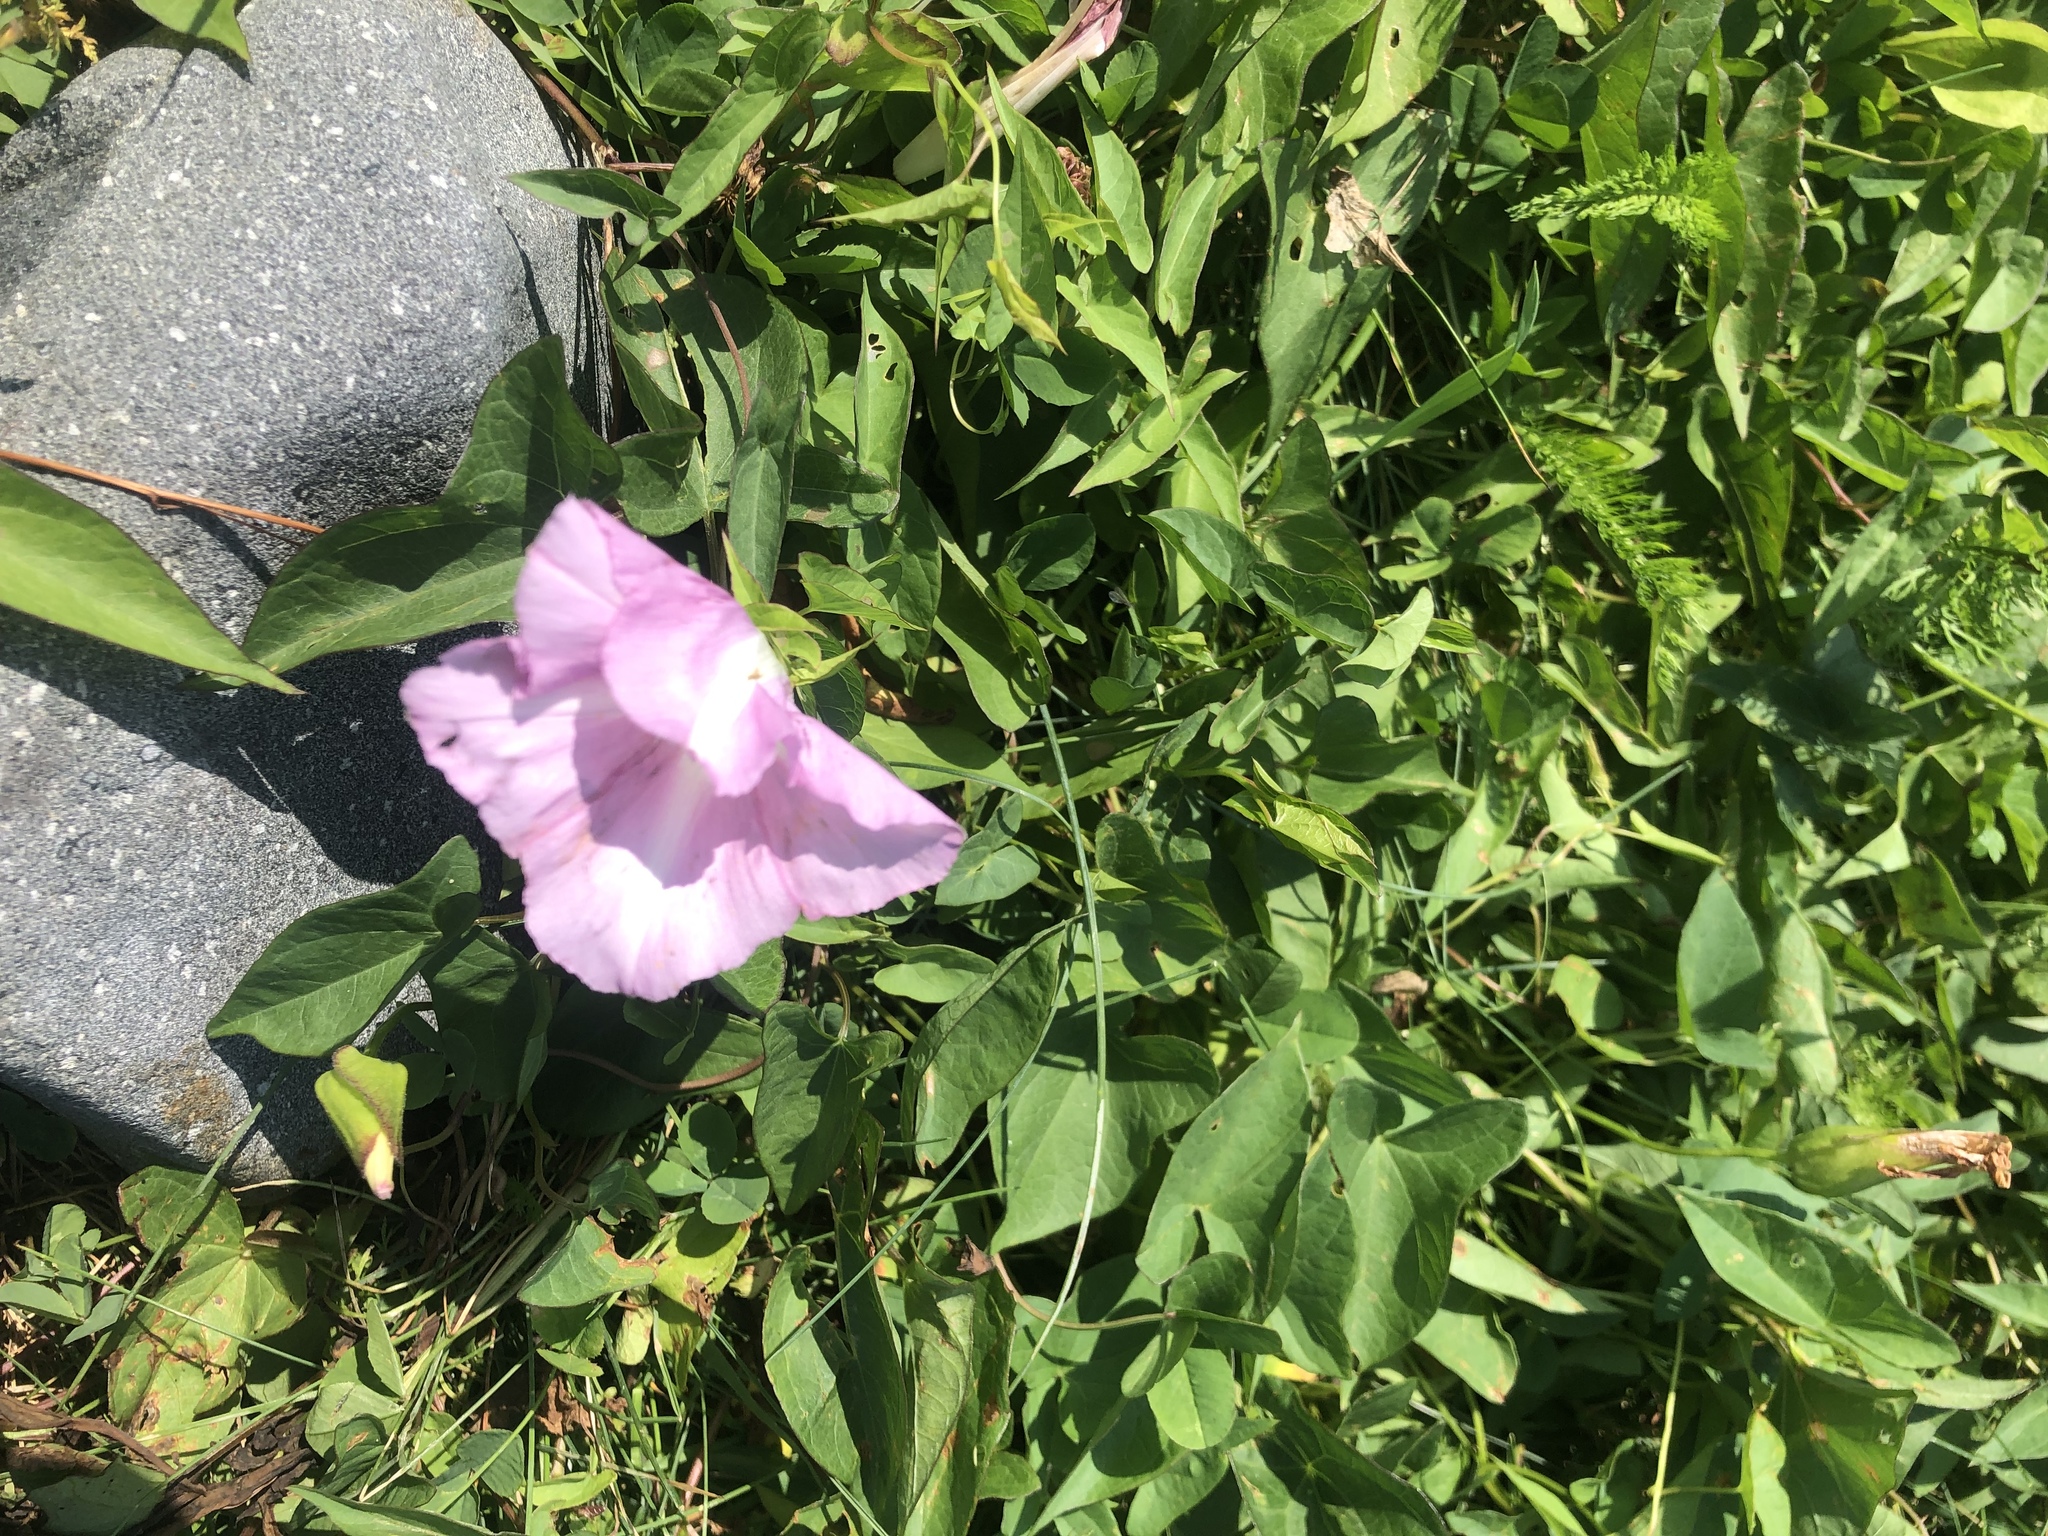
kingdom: Plantae
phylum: Tracheophyta
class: Magnoliopsida
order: Solanales
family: Convolvulaceae
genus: Calystegia
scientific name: Calystegia sepium
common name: Hedge bindweed
